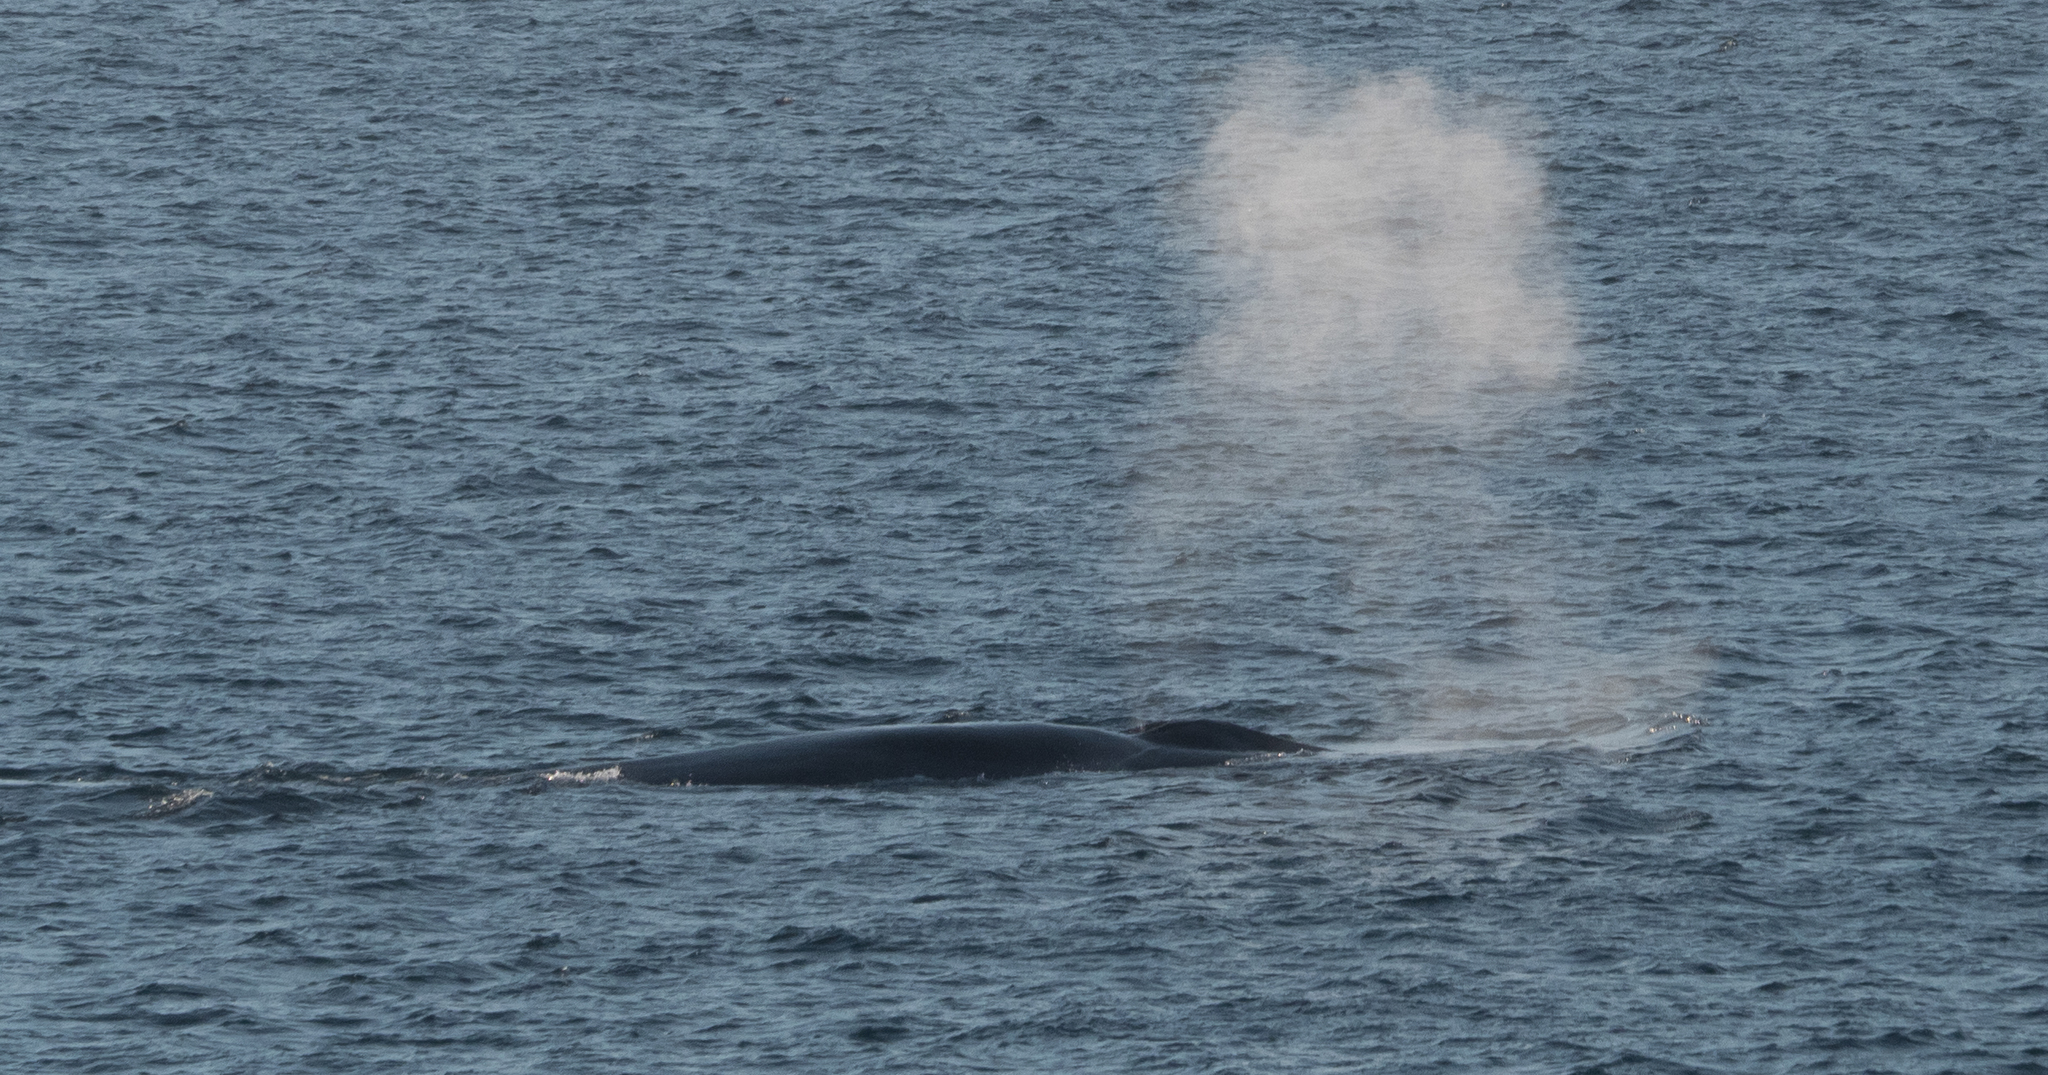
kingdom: Animalia
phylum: Chordata
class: Mammalia
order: Cetacea
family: Balaenopteridae
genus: Balaenoptera
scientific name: Balaenoptera musculus
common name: Blue whale
